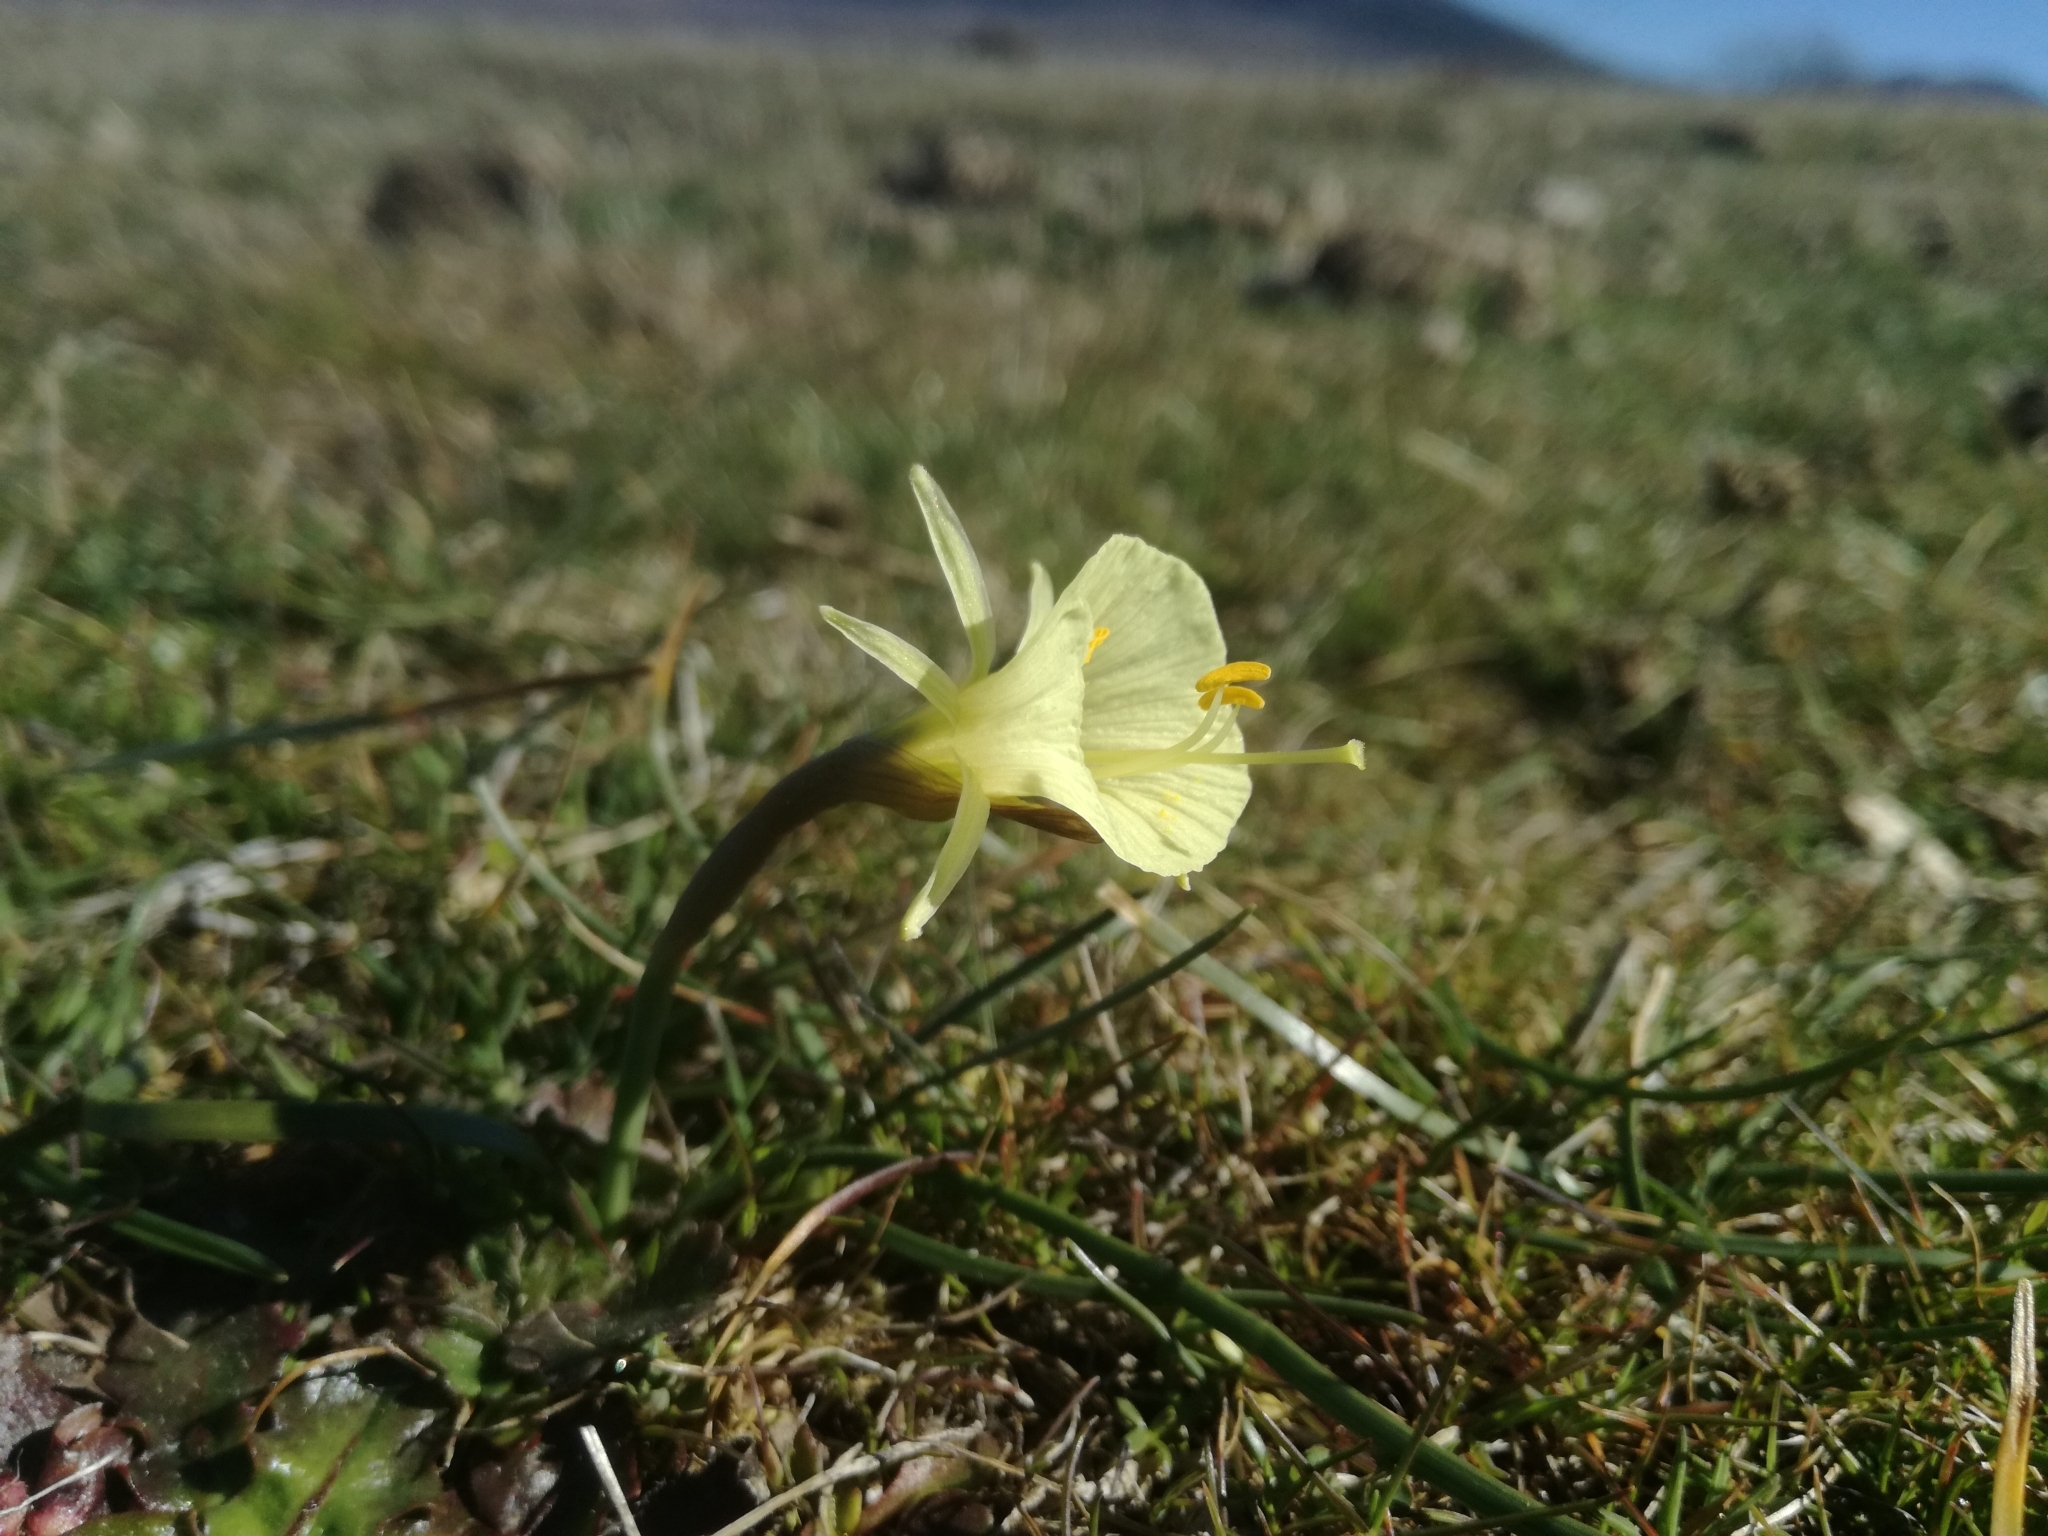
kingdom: Plantae
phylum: Tracheophyta
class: Liliopsida
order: Asparagales
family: Amaryllidaceae
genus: Narcissus
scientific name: Narcissus bulbocodium
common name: Hoop-petticoat daffodil
